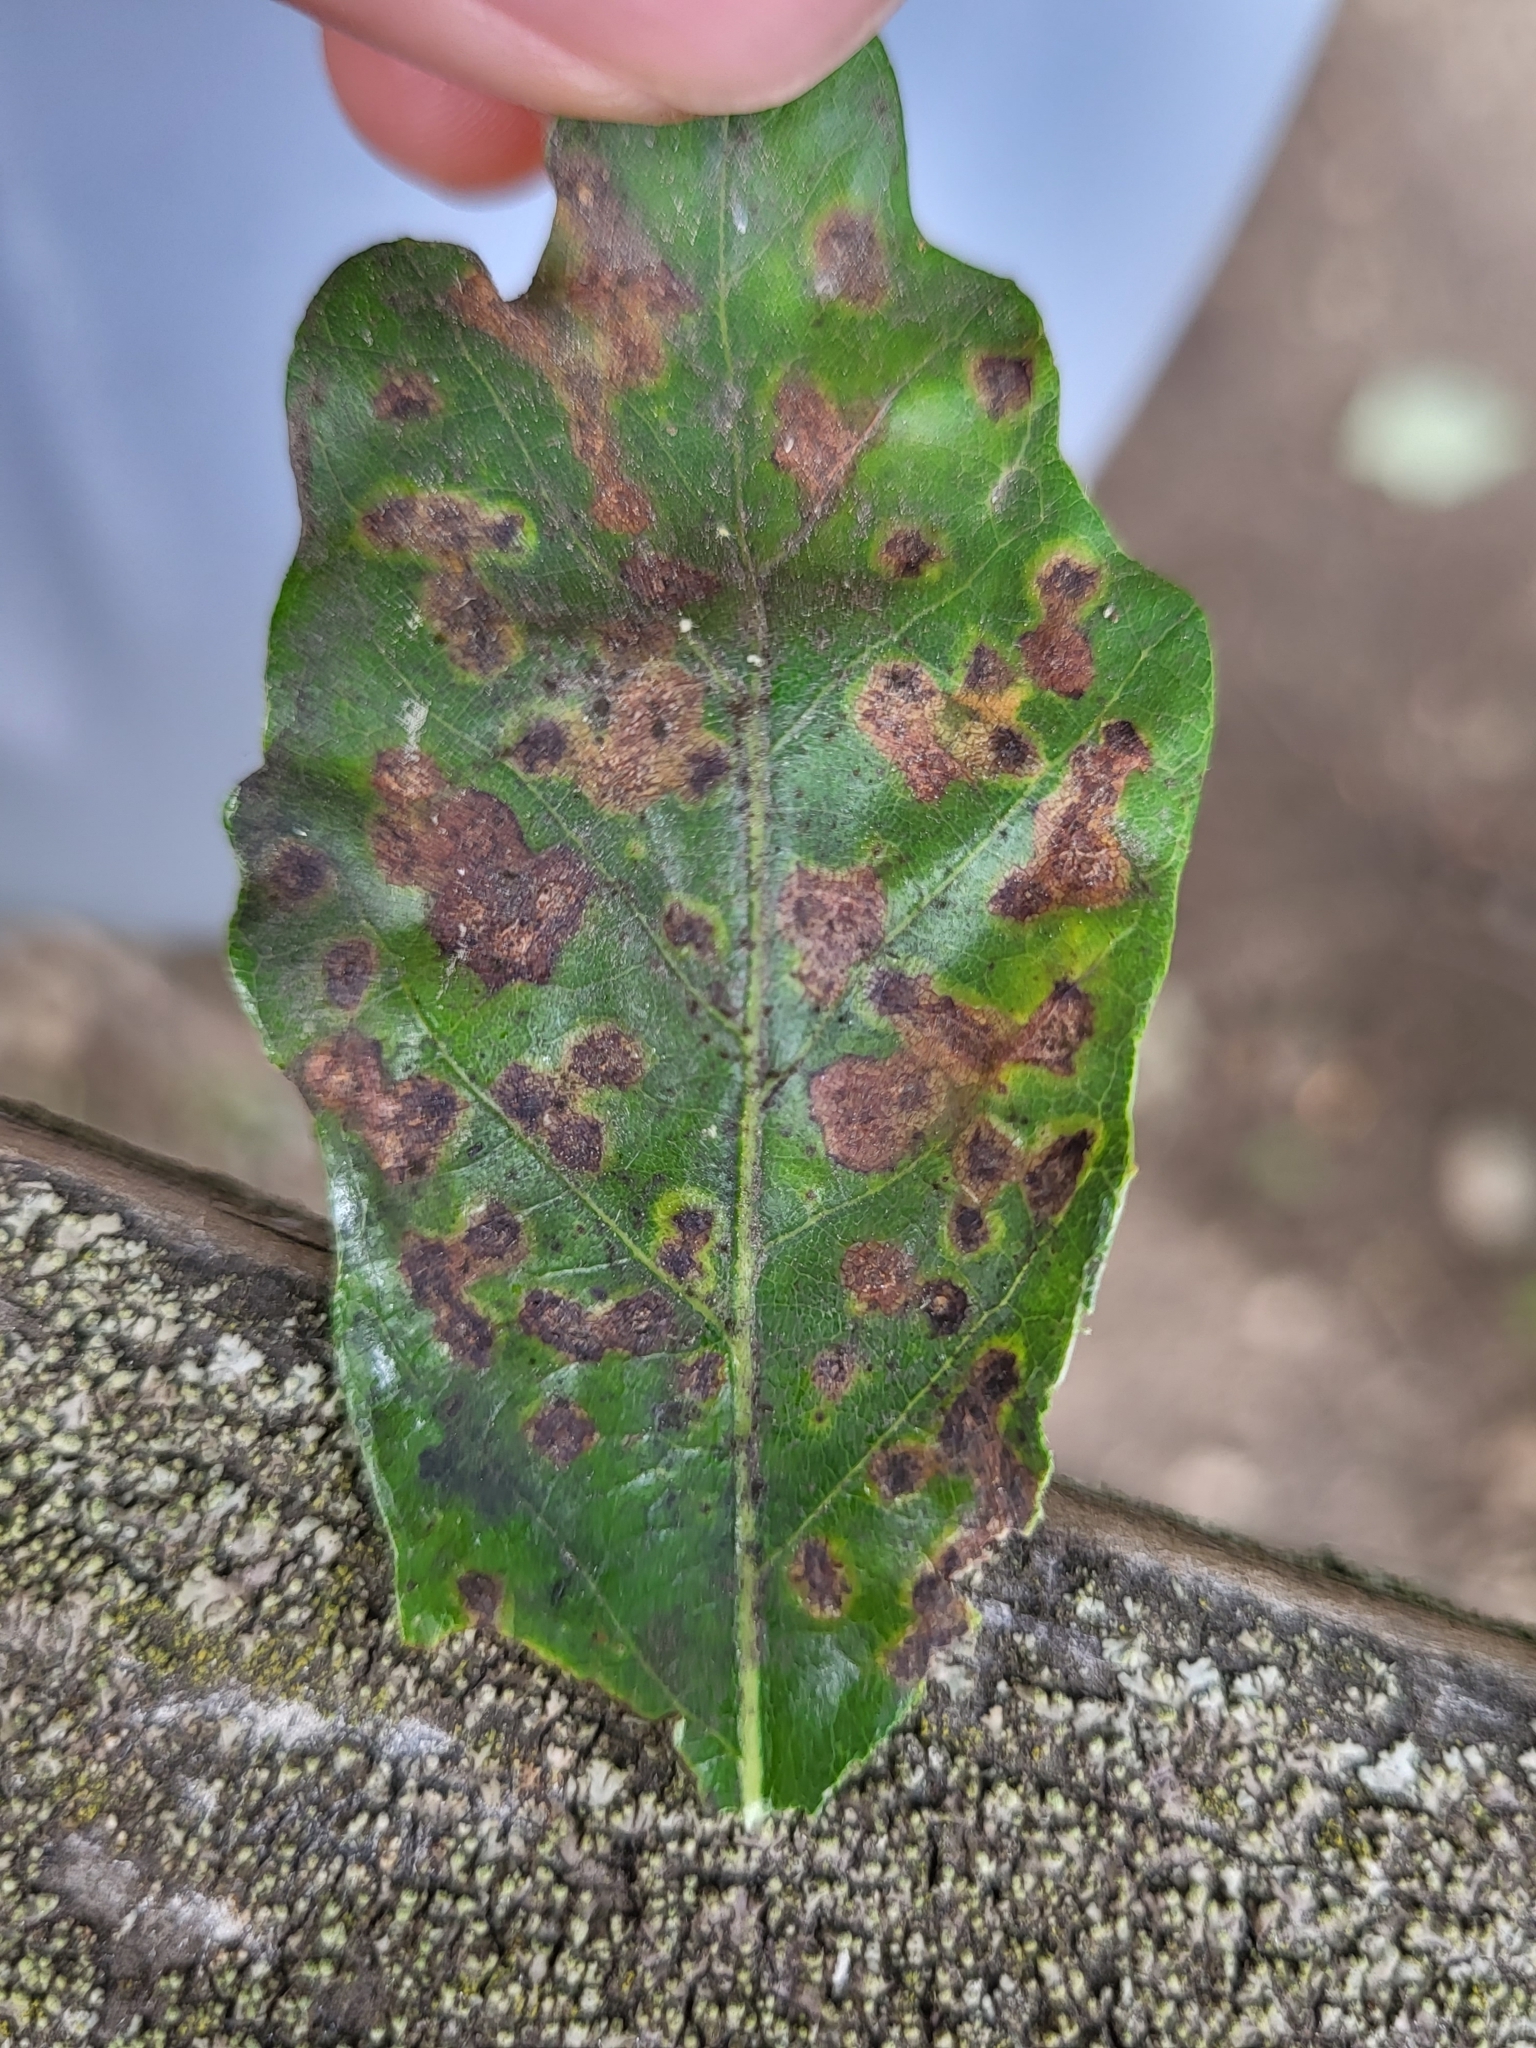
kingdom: Animalia
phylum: Arthropoda
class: Insecta
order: Hymenoptera
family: Cynipidae
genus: Neuroterus
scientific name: Neuroterus
